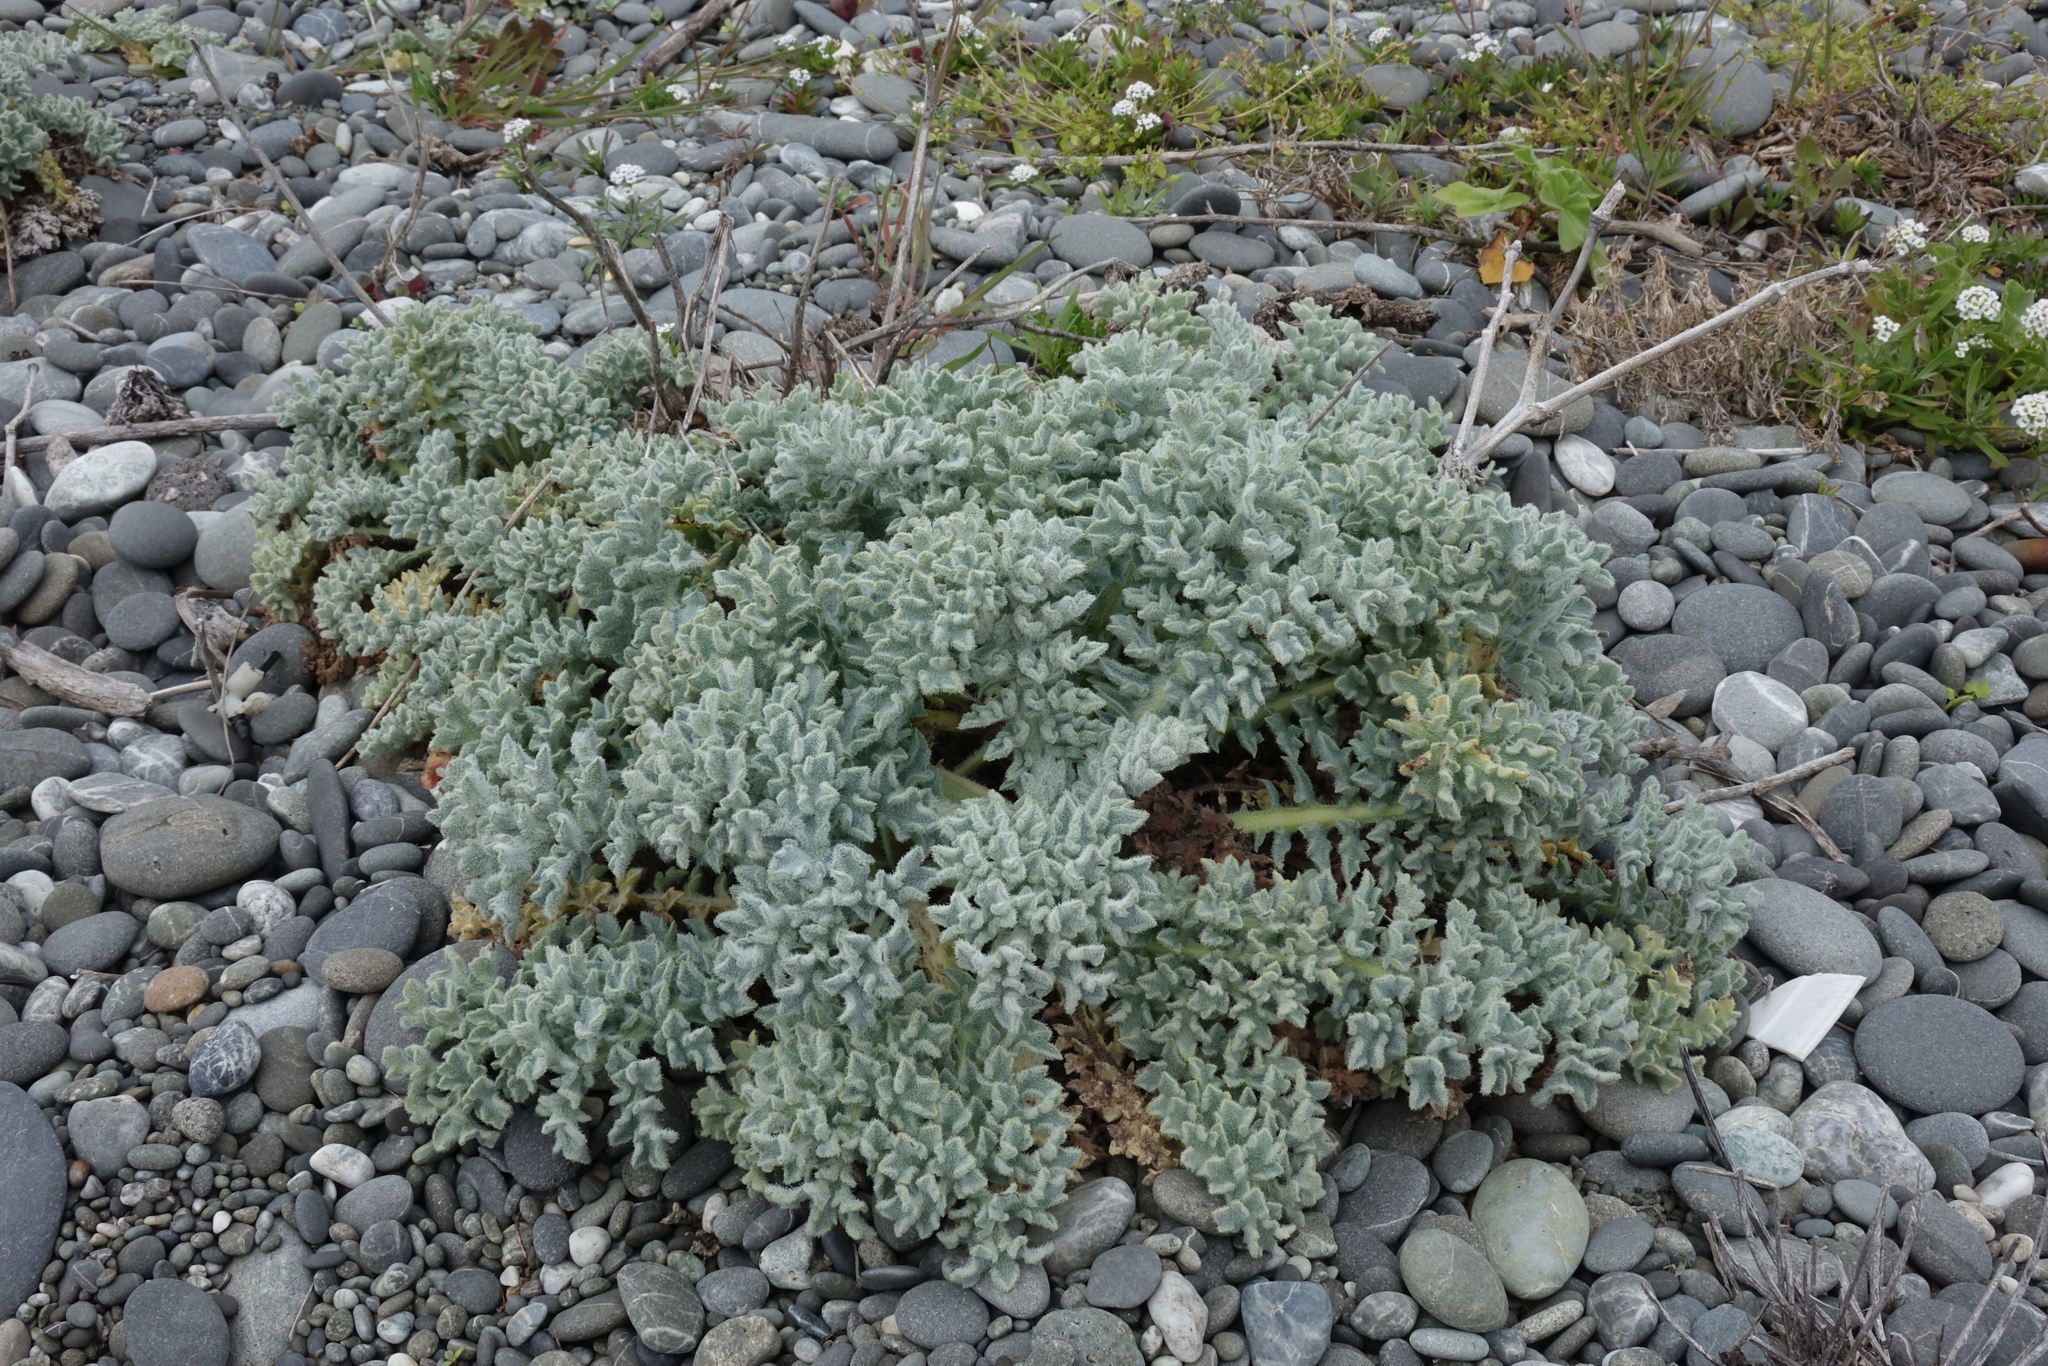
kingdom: Plantae
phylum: Tracheophyta
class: Magnoliopsida
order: Ranunculales
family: Papaveraceae
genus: Glaucium
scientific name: Glaucium flavum
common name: Yellow horned-poppy
